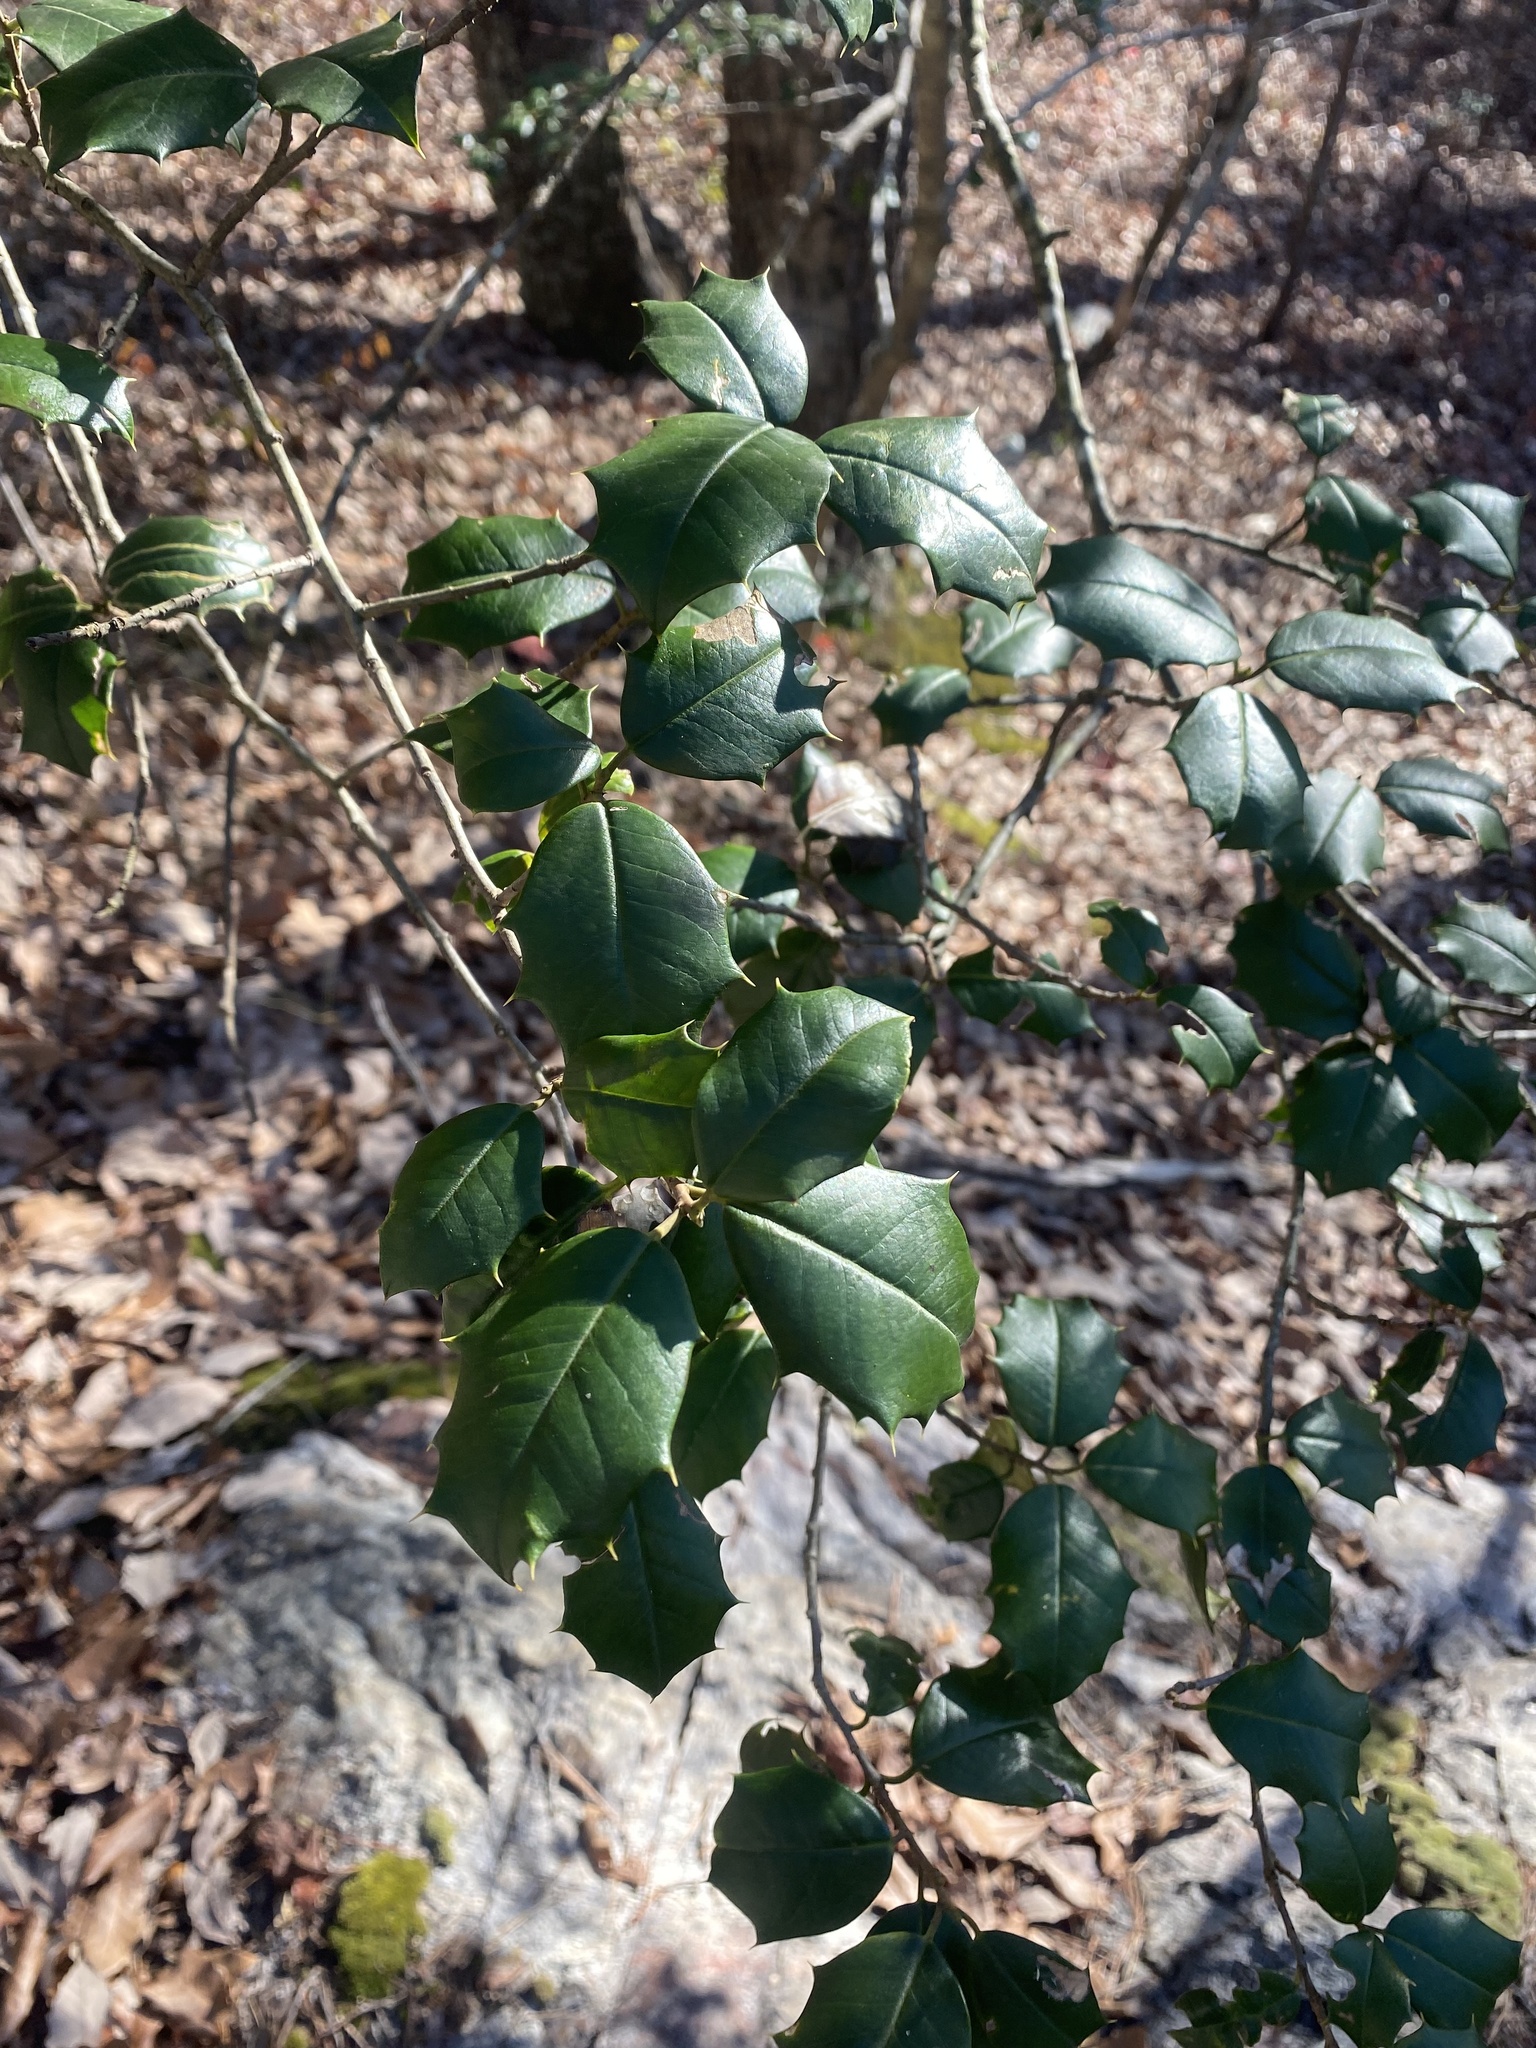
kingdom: Plantae
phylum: Tracheophyta
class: Magnoliopsida
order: Aquifoliales
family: Aquifoliaceae
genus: Ilex
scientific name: Ilex opaca
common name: American holly
